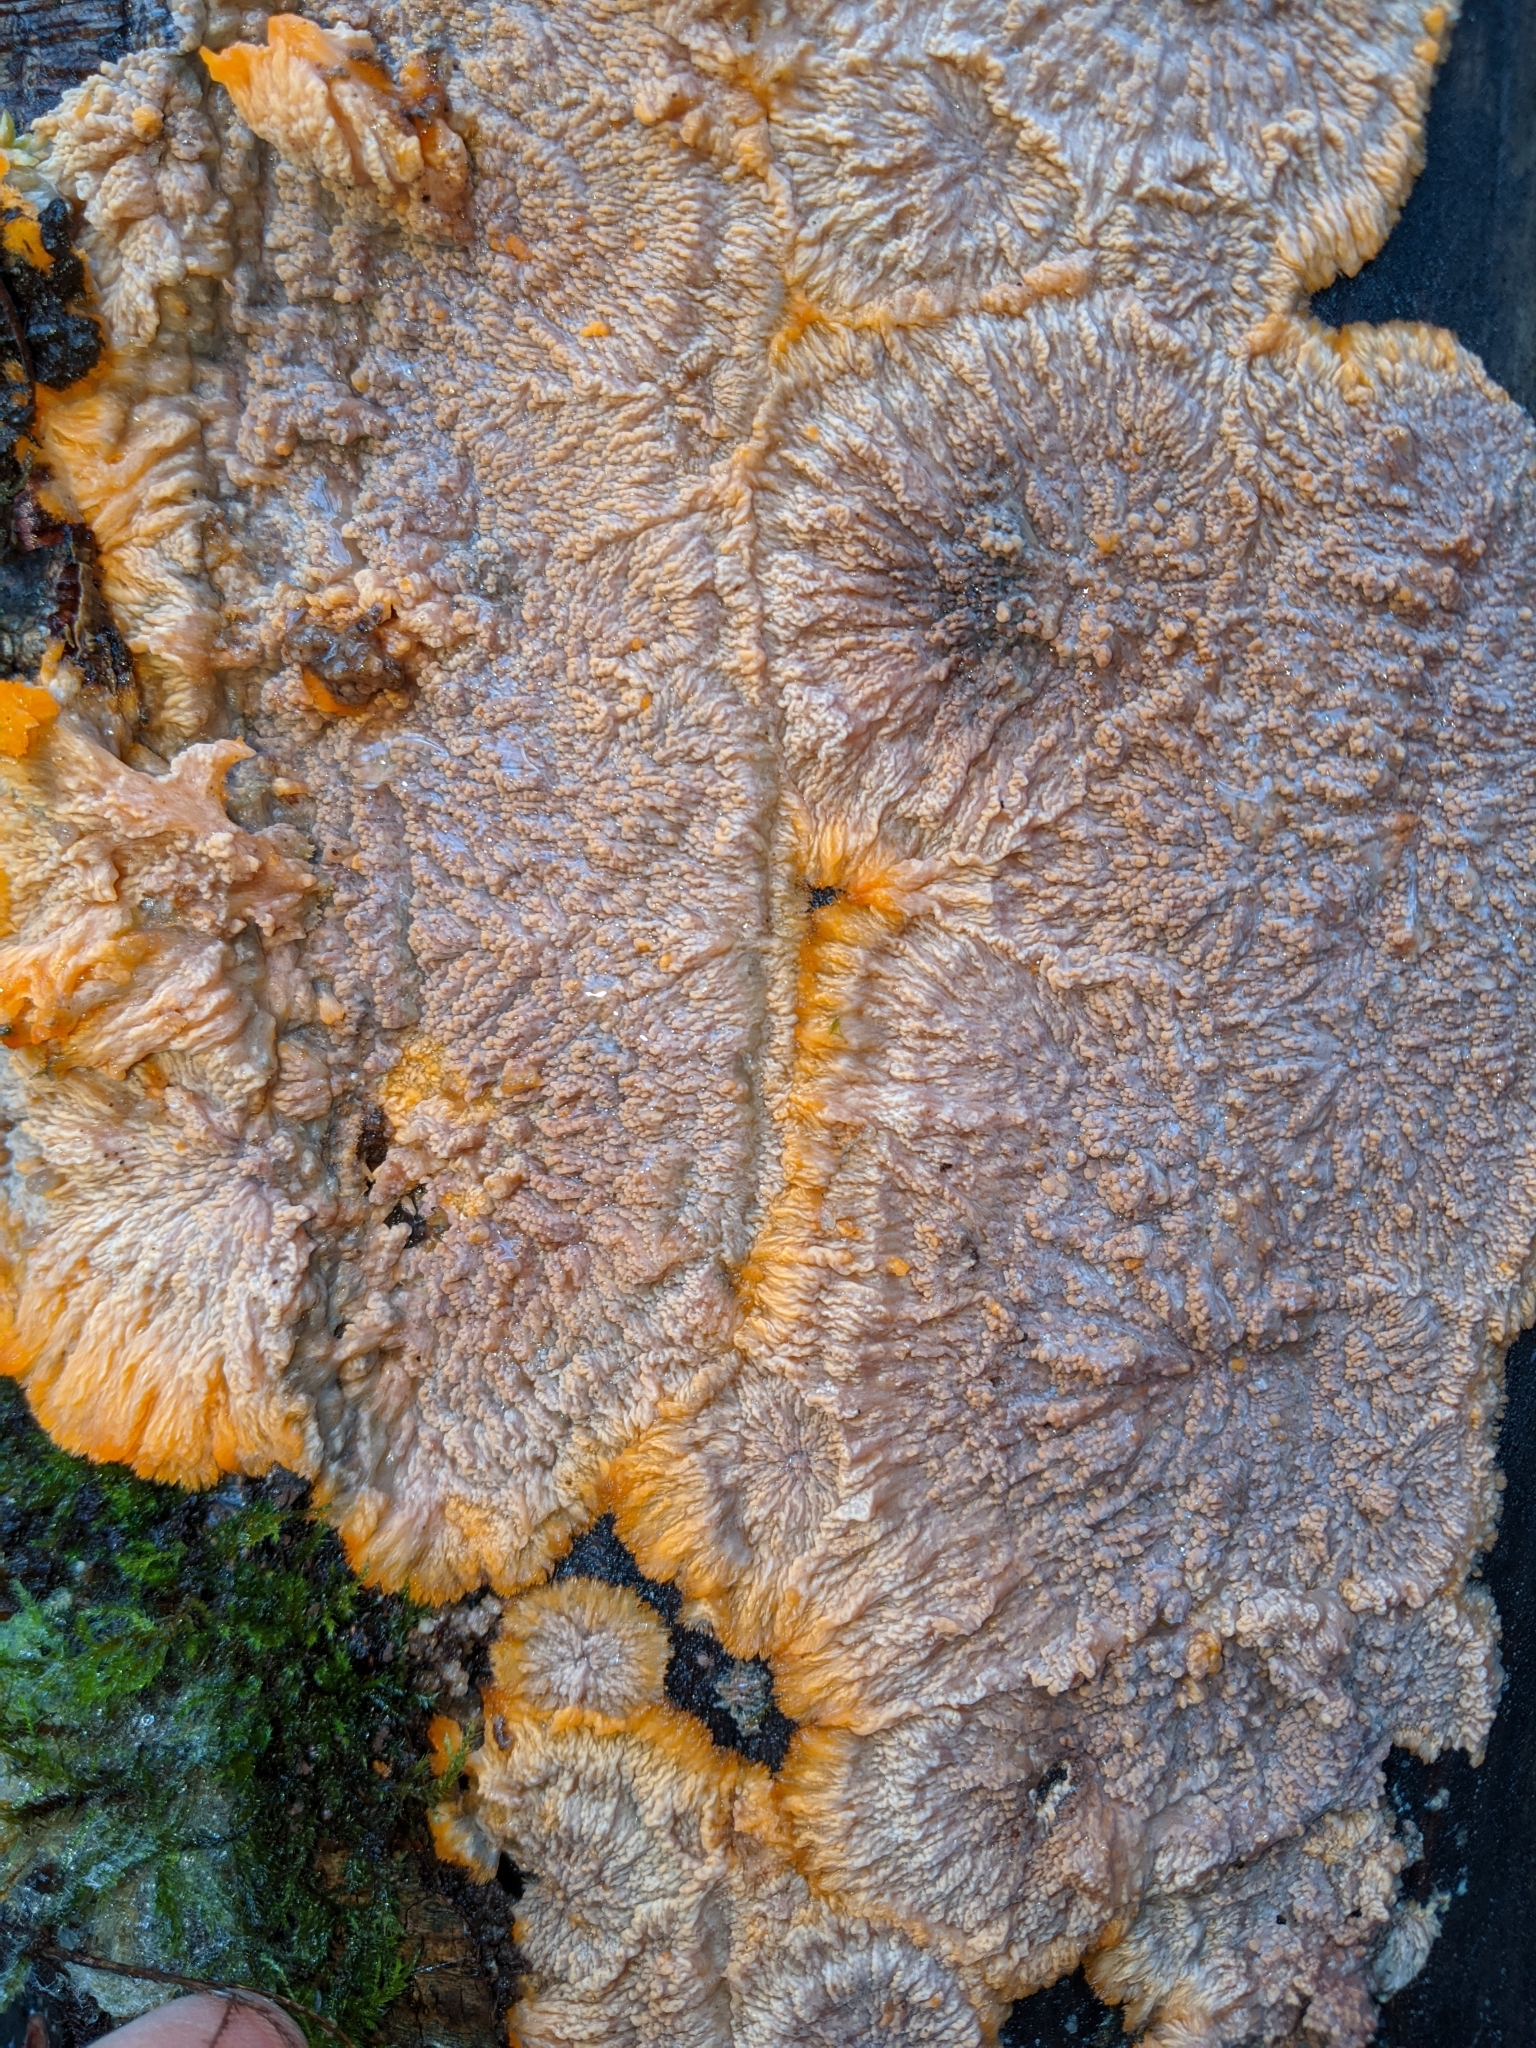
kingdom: Fungi
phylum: Basidiomycota
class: Agaricomycetes
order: Polyporales
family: Meruliaceae
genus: Phlebia
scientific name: Phlebia radiata
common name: Wrinkled crust
